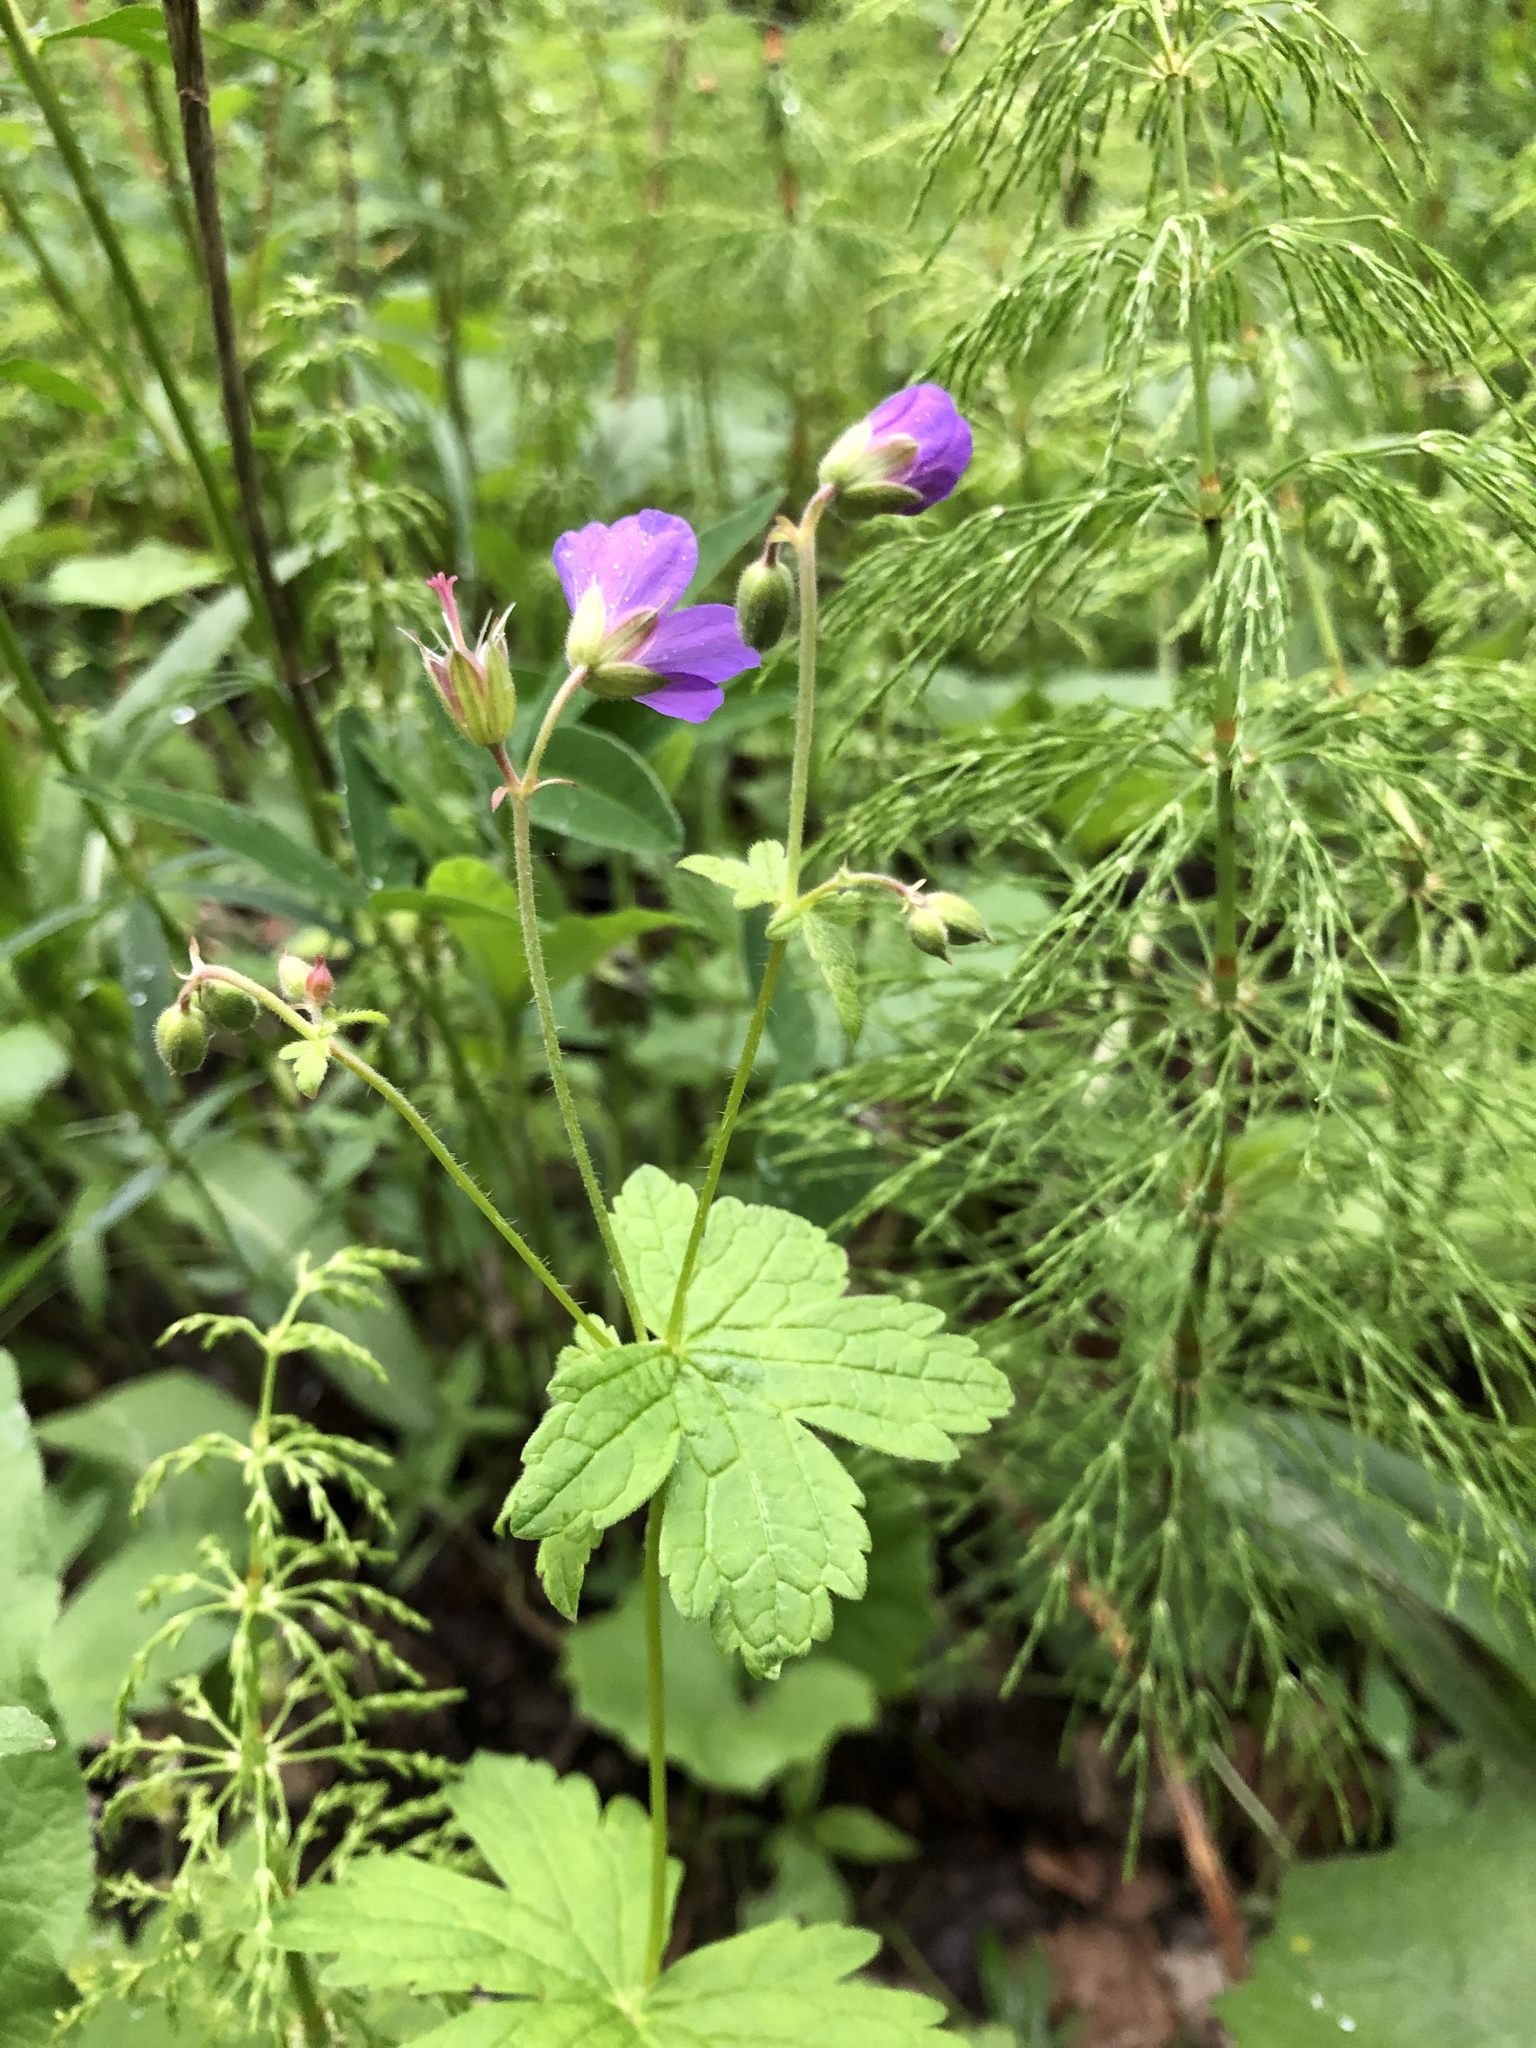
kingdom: Plantae
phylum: Tracheophyta
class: Magnoliopsida
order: Geraniales
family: Geraniaceae
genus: Geranium
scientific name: Geranium sylvaticum
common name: Wood crane's-bill
